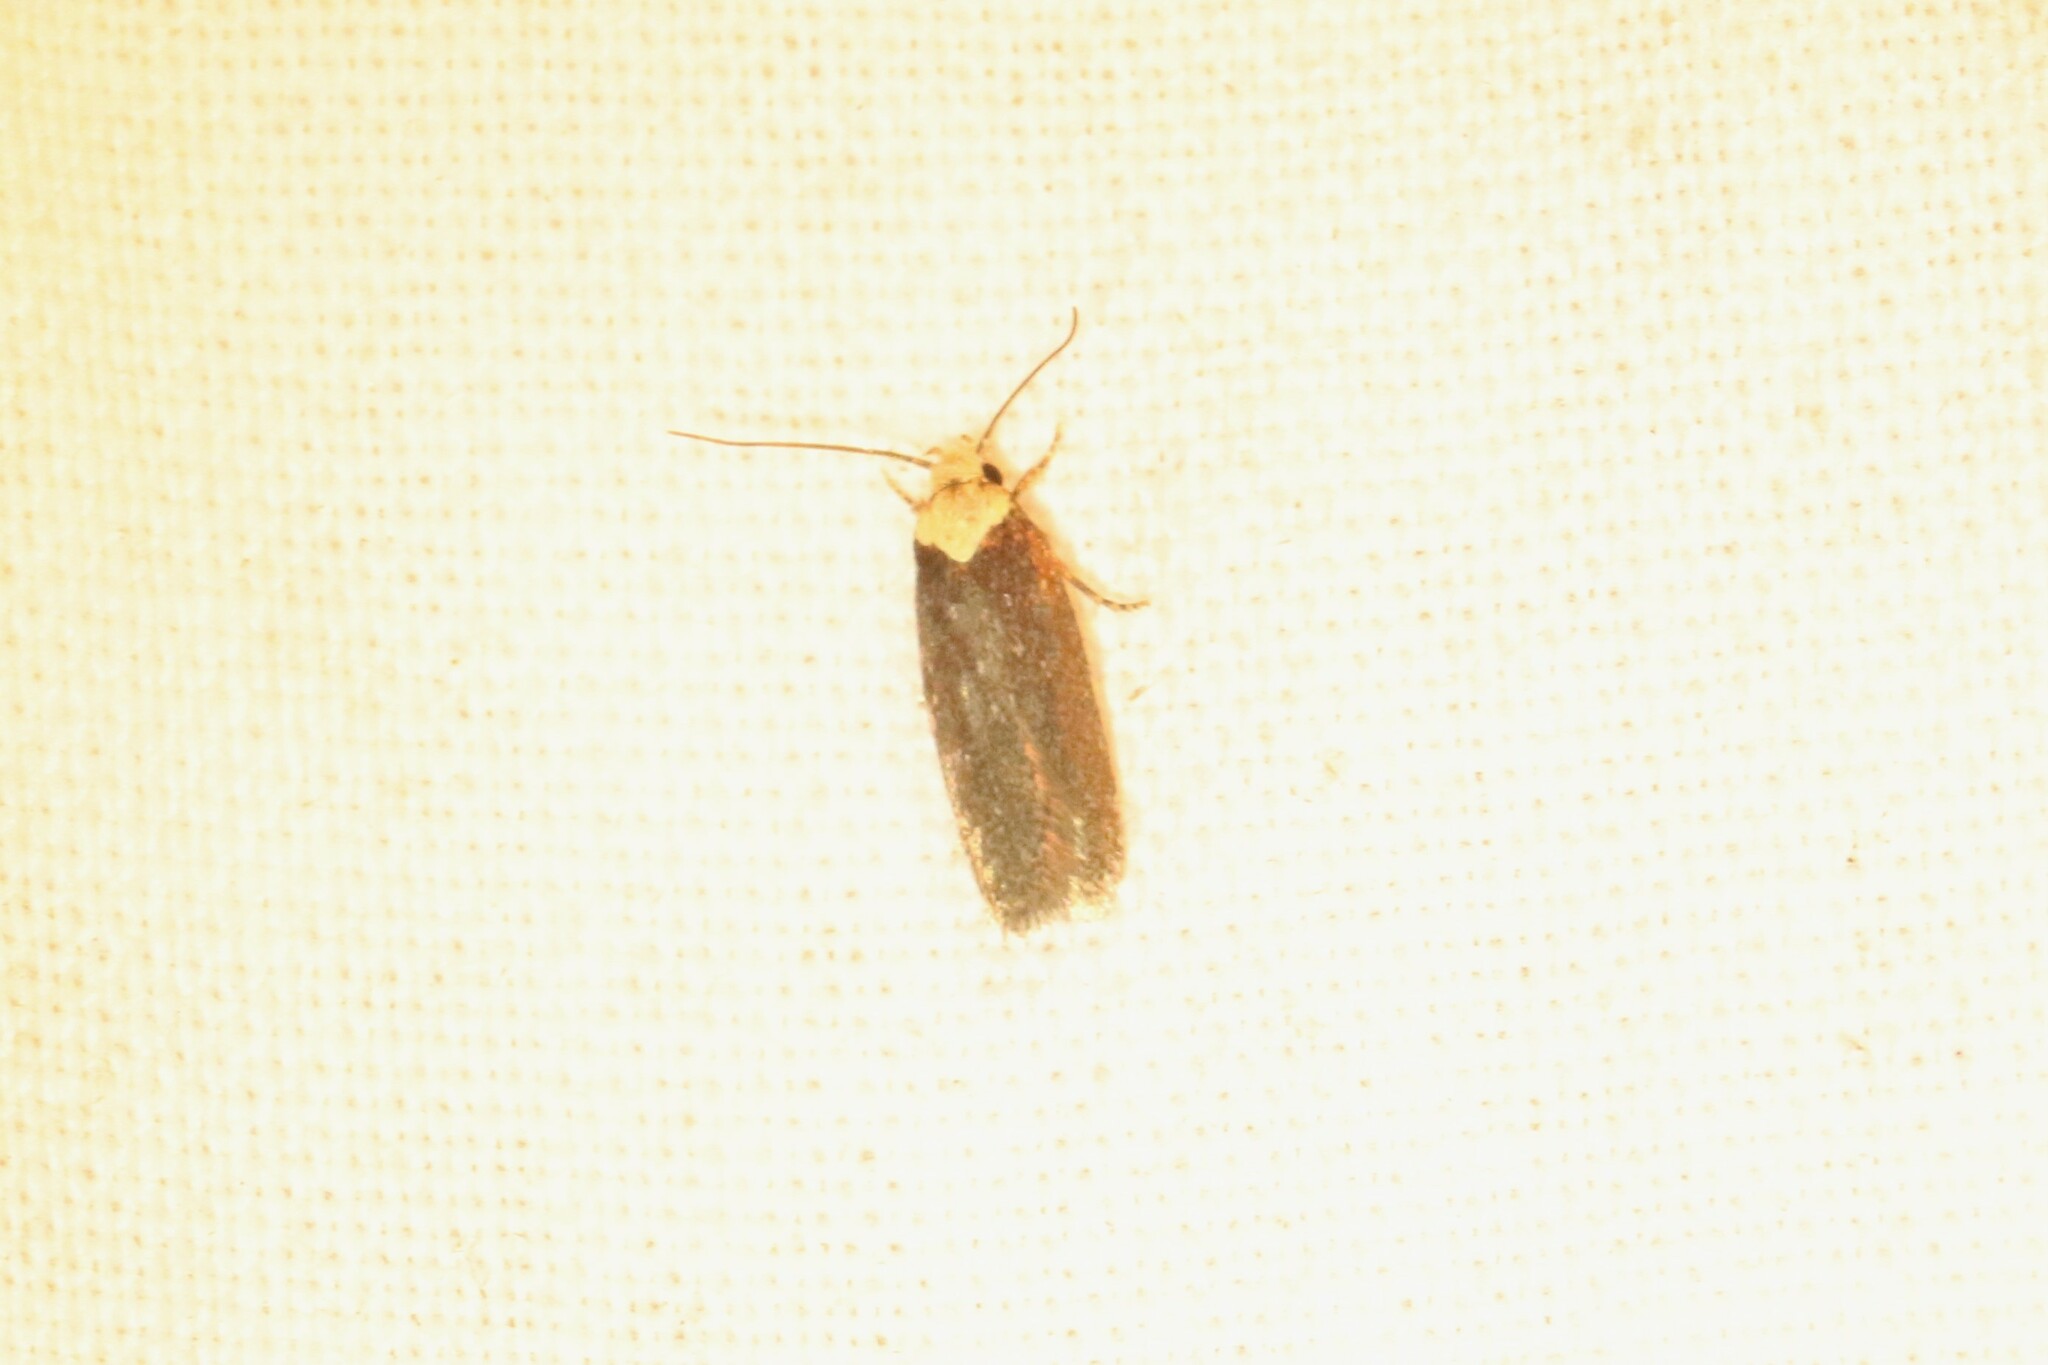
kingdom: Animalia
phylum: Arthropoda
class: Insecta
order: Lepidoptera
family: Depressariidae
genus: Depressaria
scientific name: Depressaria depressana
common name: Lost flat-body
